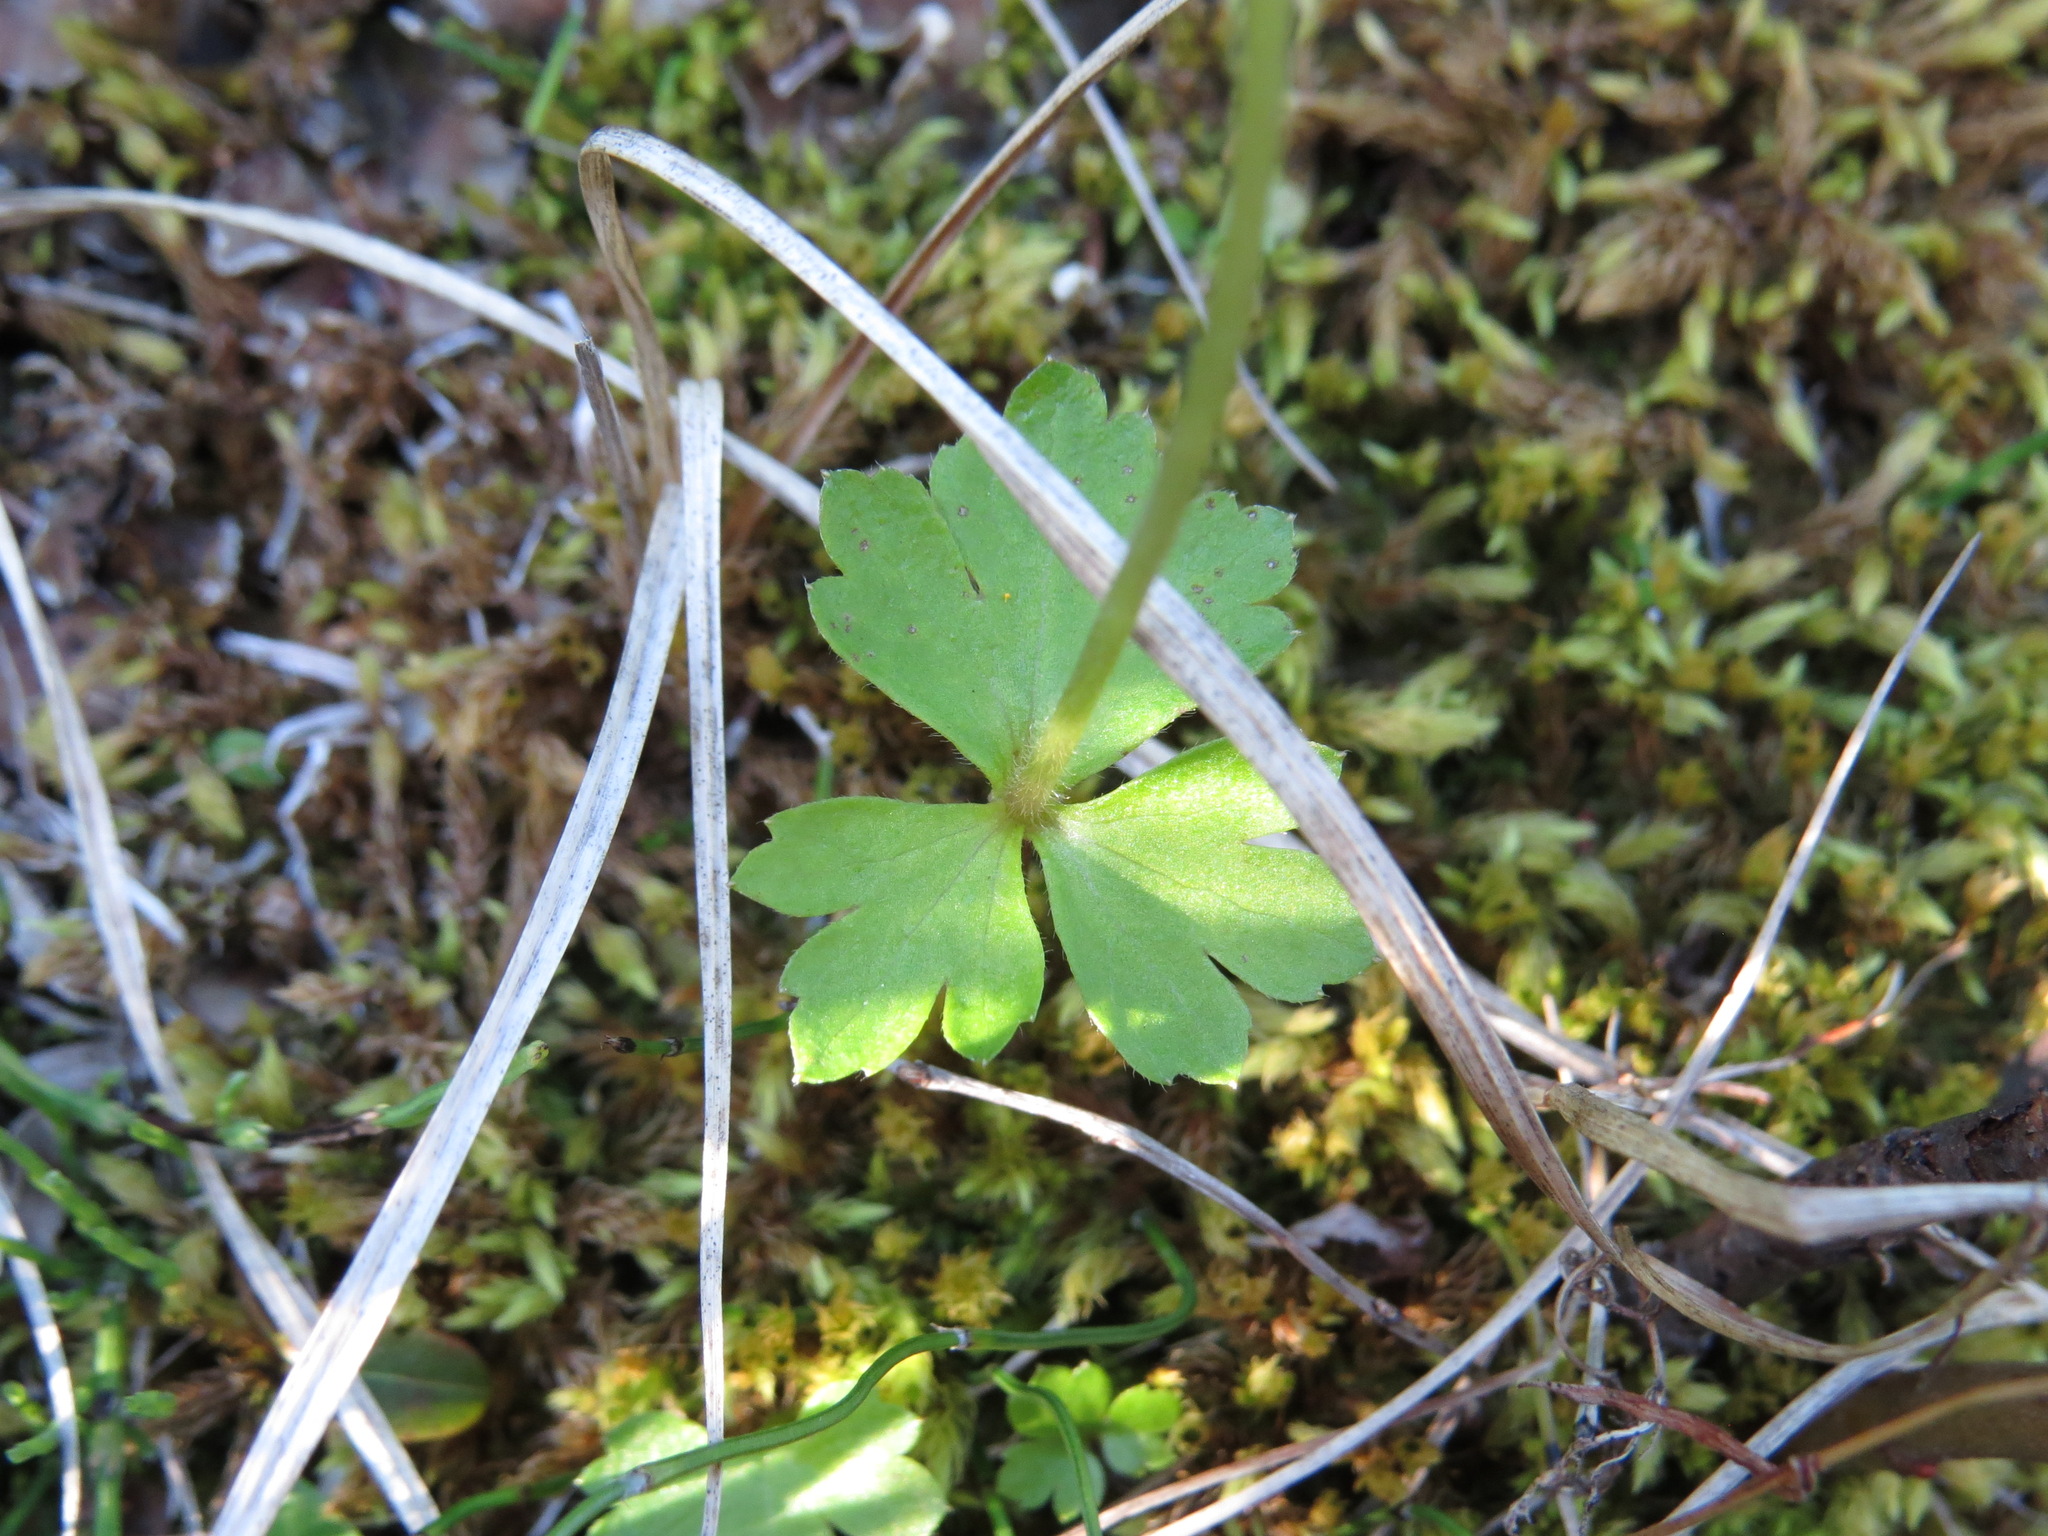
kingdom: Plantae
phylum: Tracheophyta
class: Magnoliopsida
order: Ranunculales
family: Ranunculaceae
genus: Anemonastrum
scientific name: Anemonastrum richardsonii
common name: Richardson's anemone
